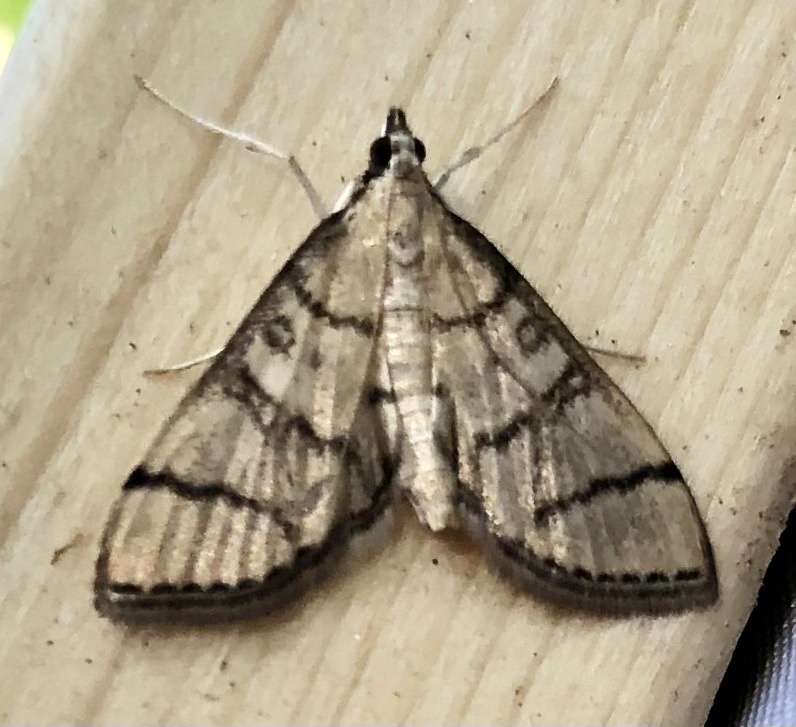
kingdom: Animalia
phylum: Arthropoda
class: Insecta
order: Lepidoptera
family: Crambidae
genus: Lamprosema
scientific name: Lamprosema Blepharomastix ranalis
